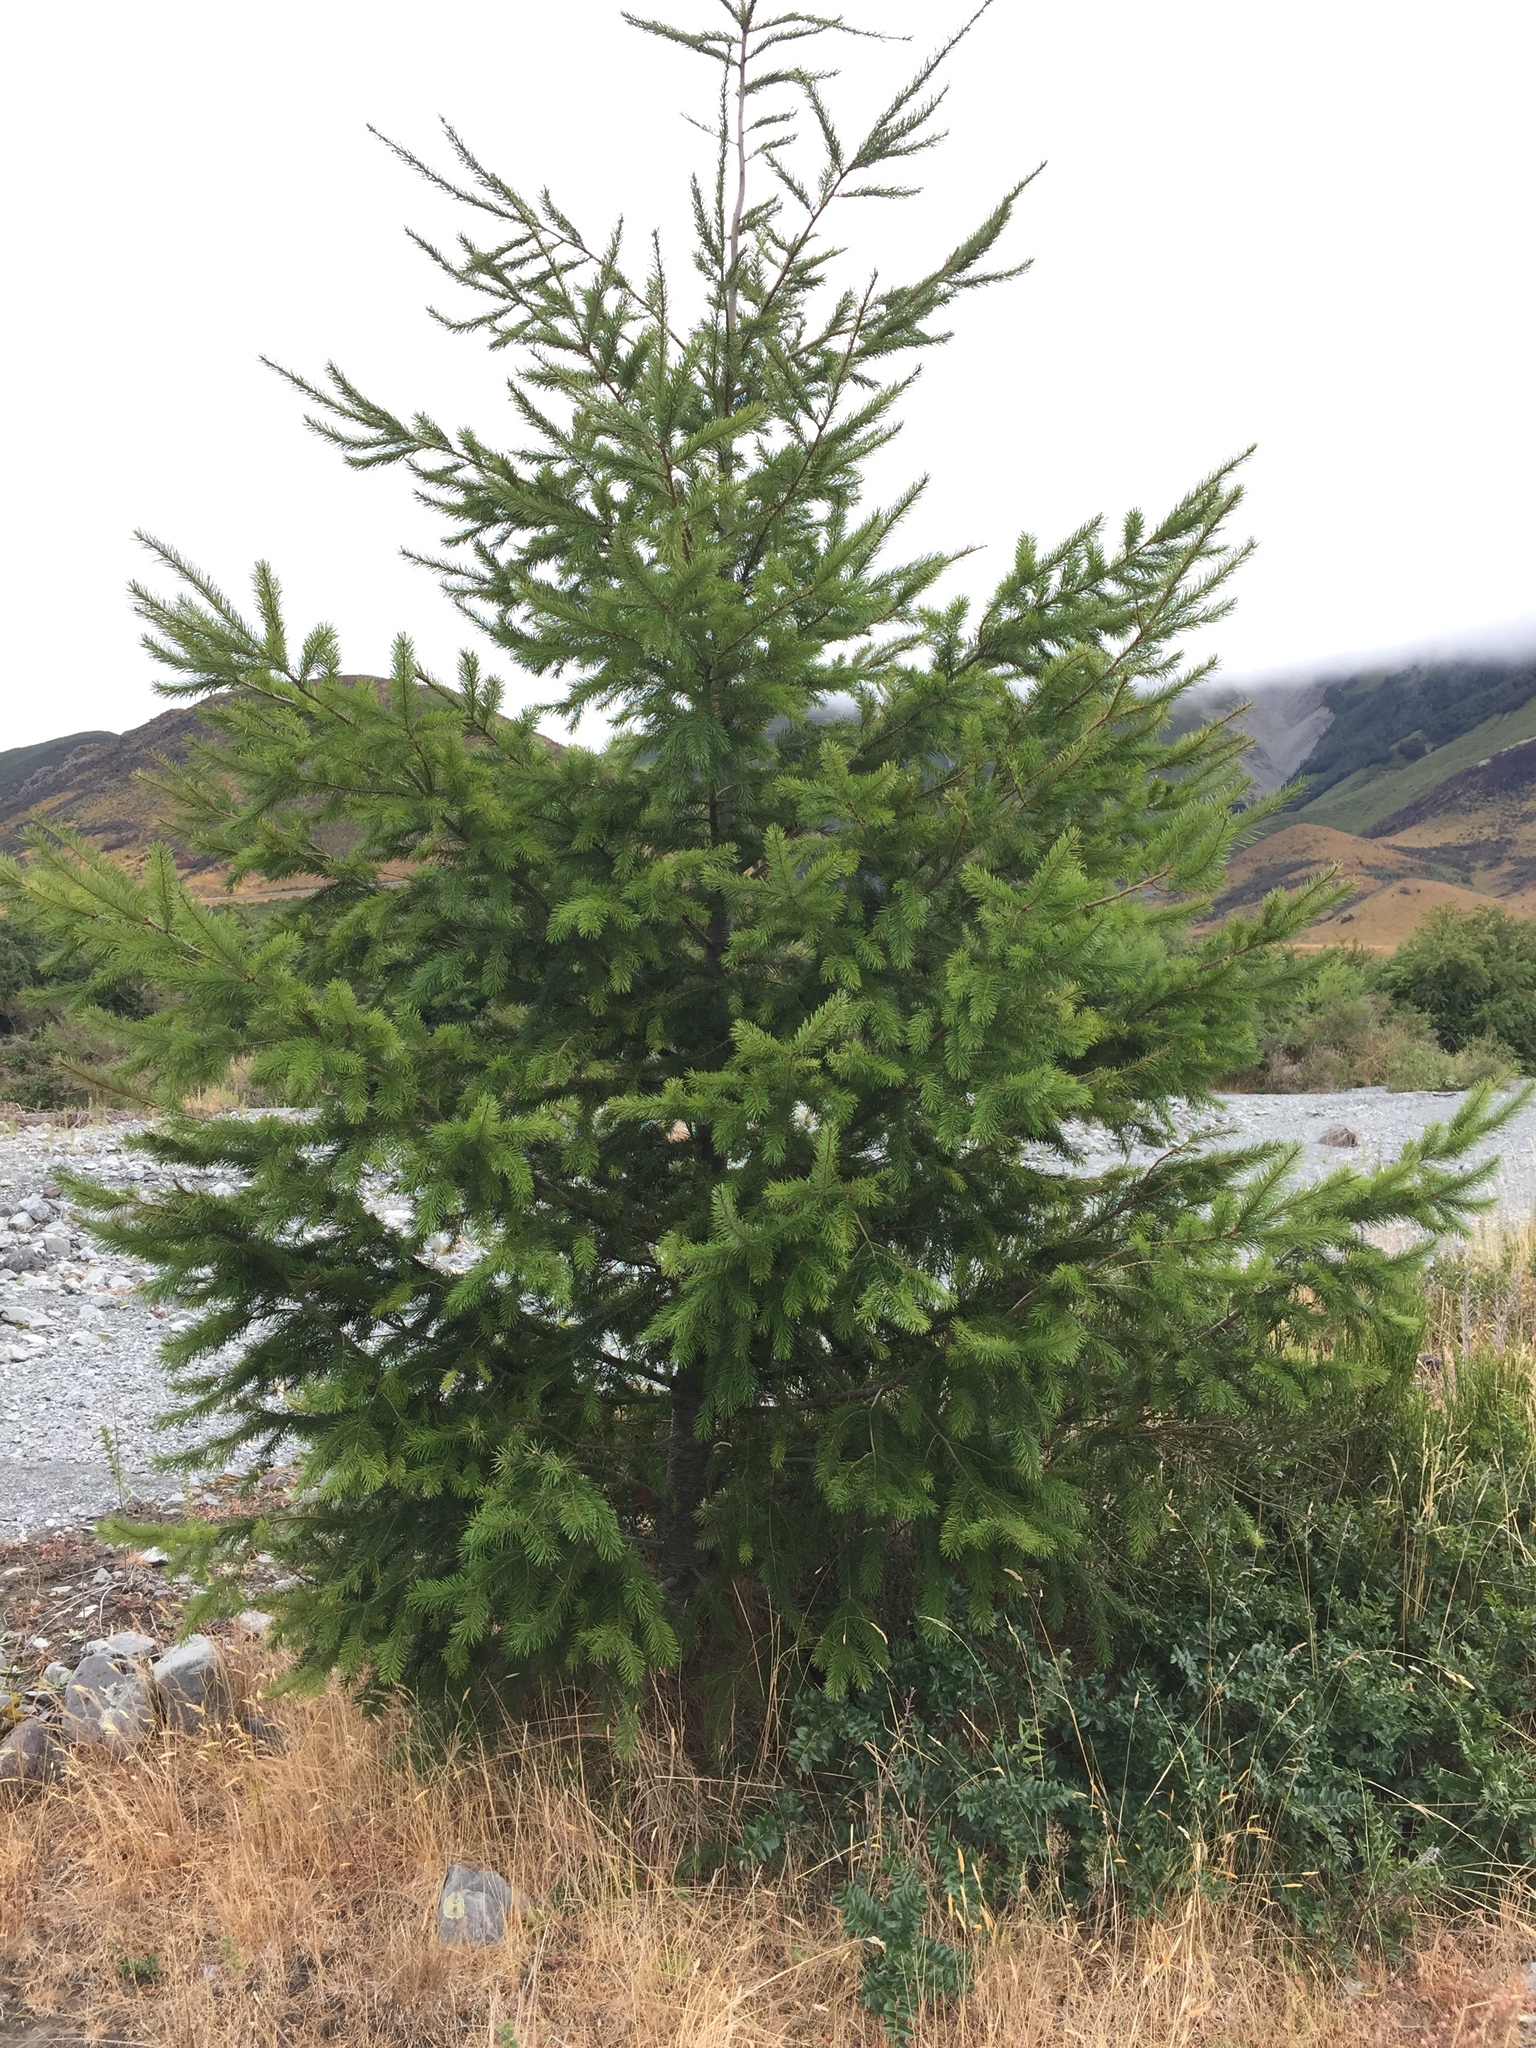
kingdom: Plantae
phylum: Tracheophyta
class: Pinopsida
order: Pinales
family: Pinaceae
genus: Pseudotsuga
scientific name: Pseudotsuga menziesii
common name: Douglas fir
